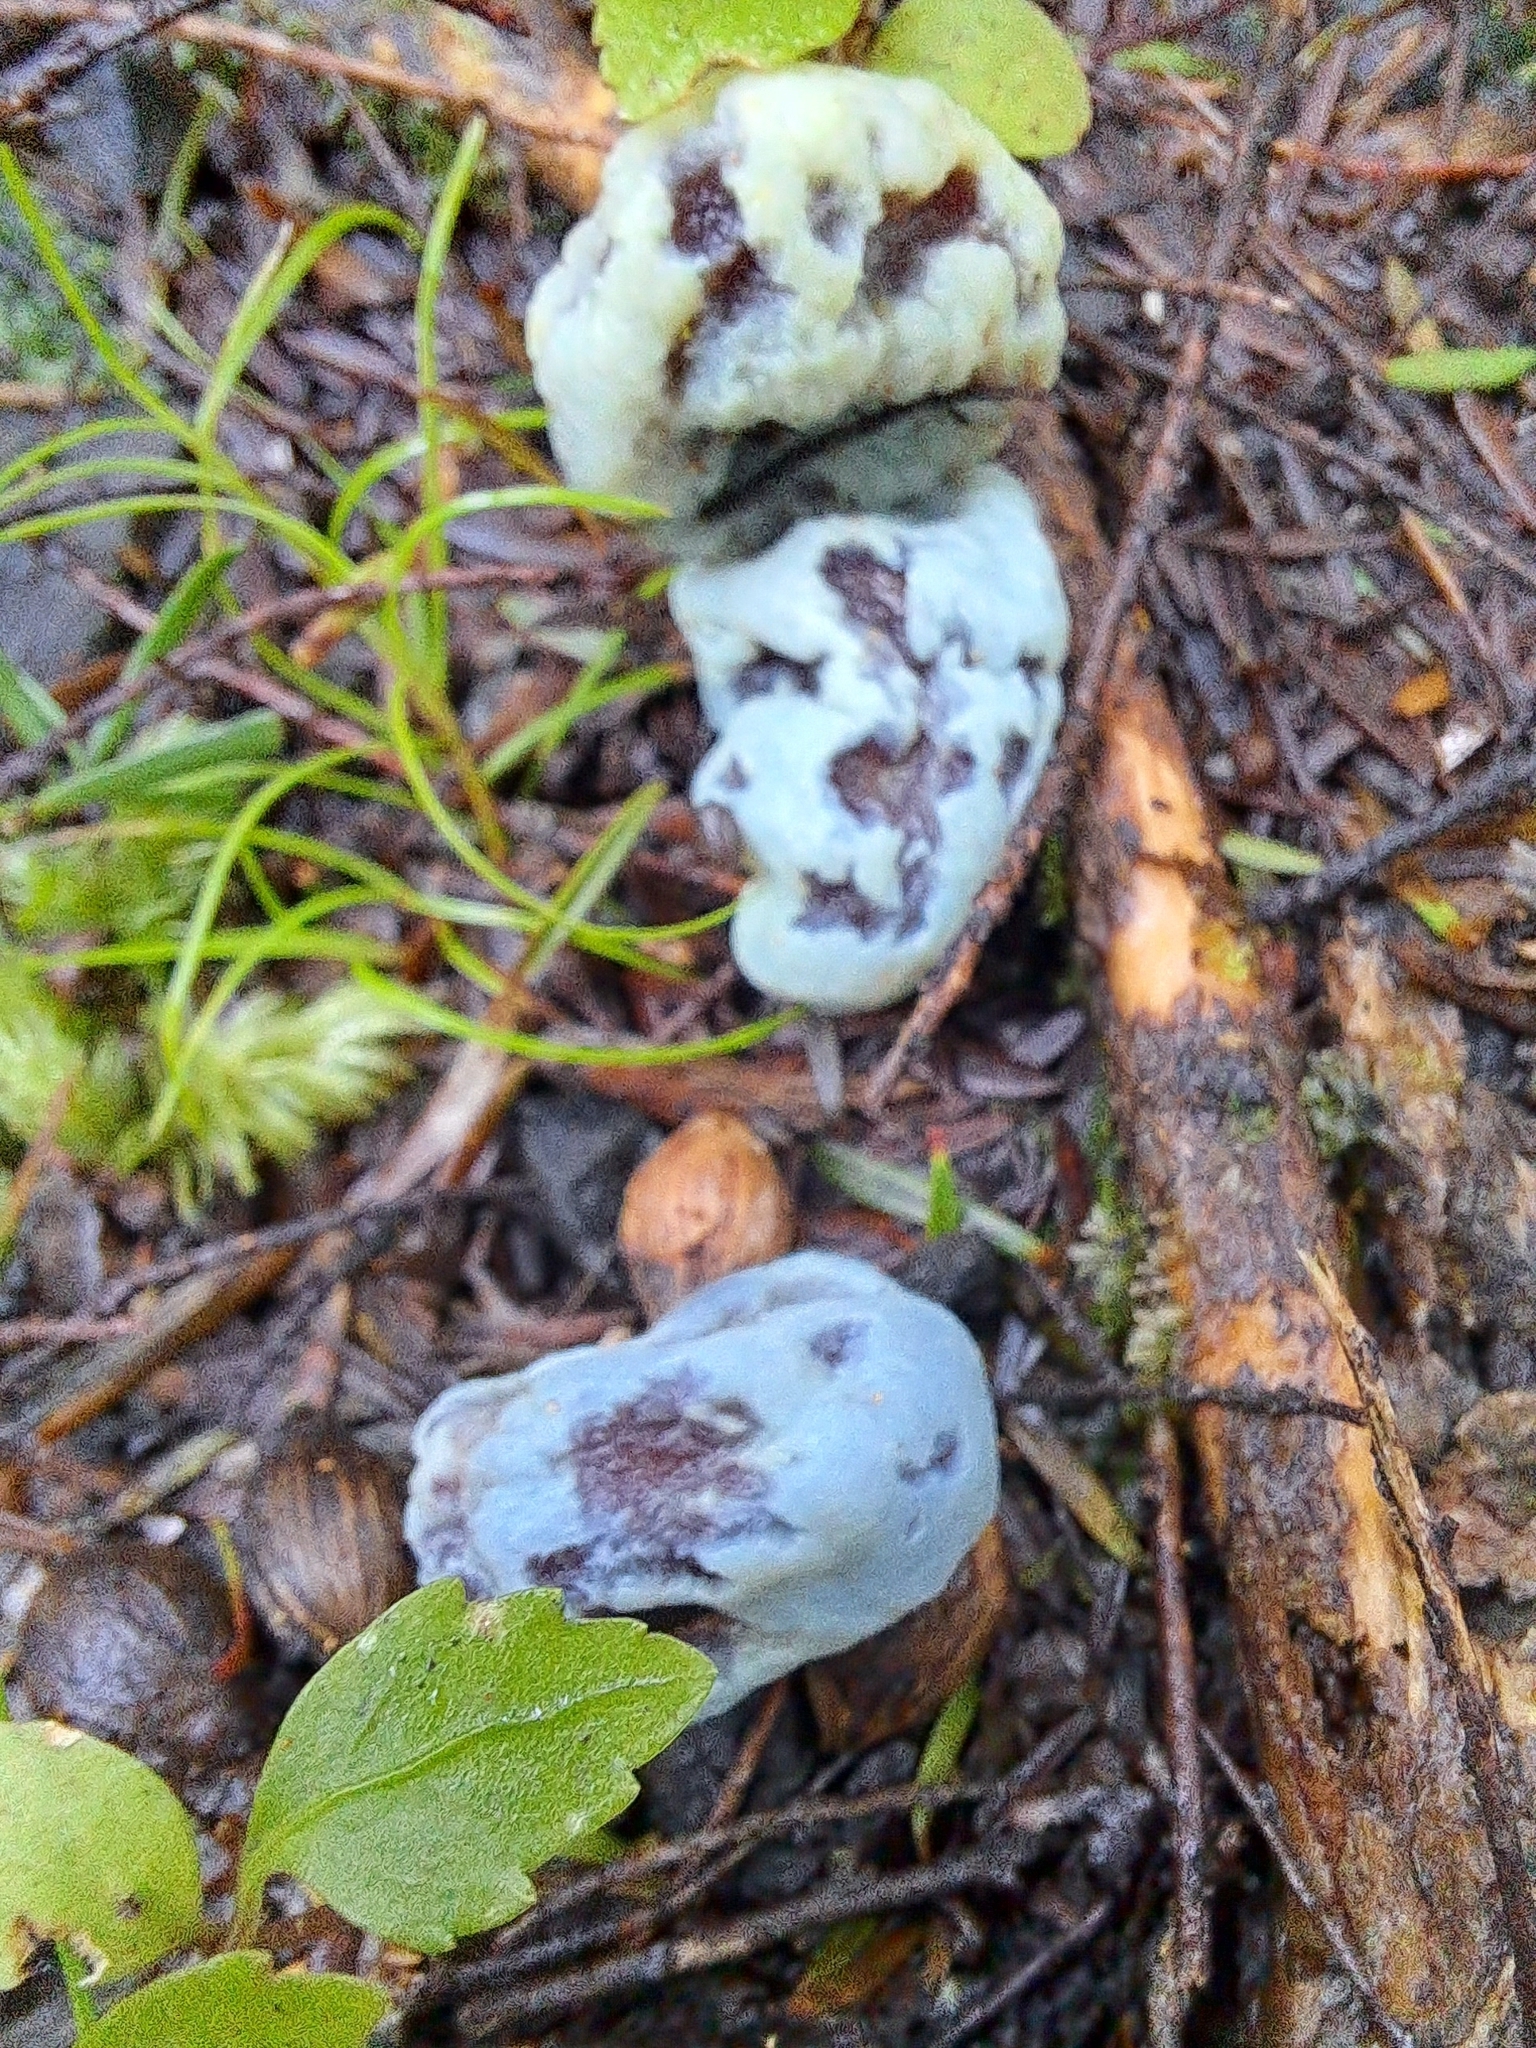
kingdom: Fungi
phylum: Basidiomycota
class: Agaricomycetes
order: Agaricales
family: Agaricaceae
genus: Clavogaster
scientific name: Clavogaster virescens
